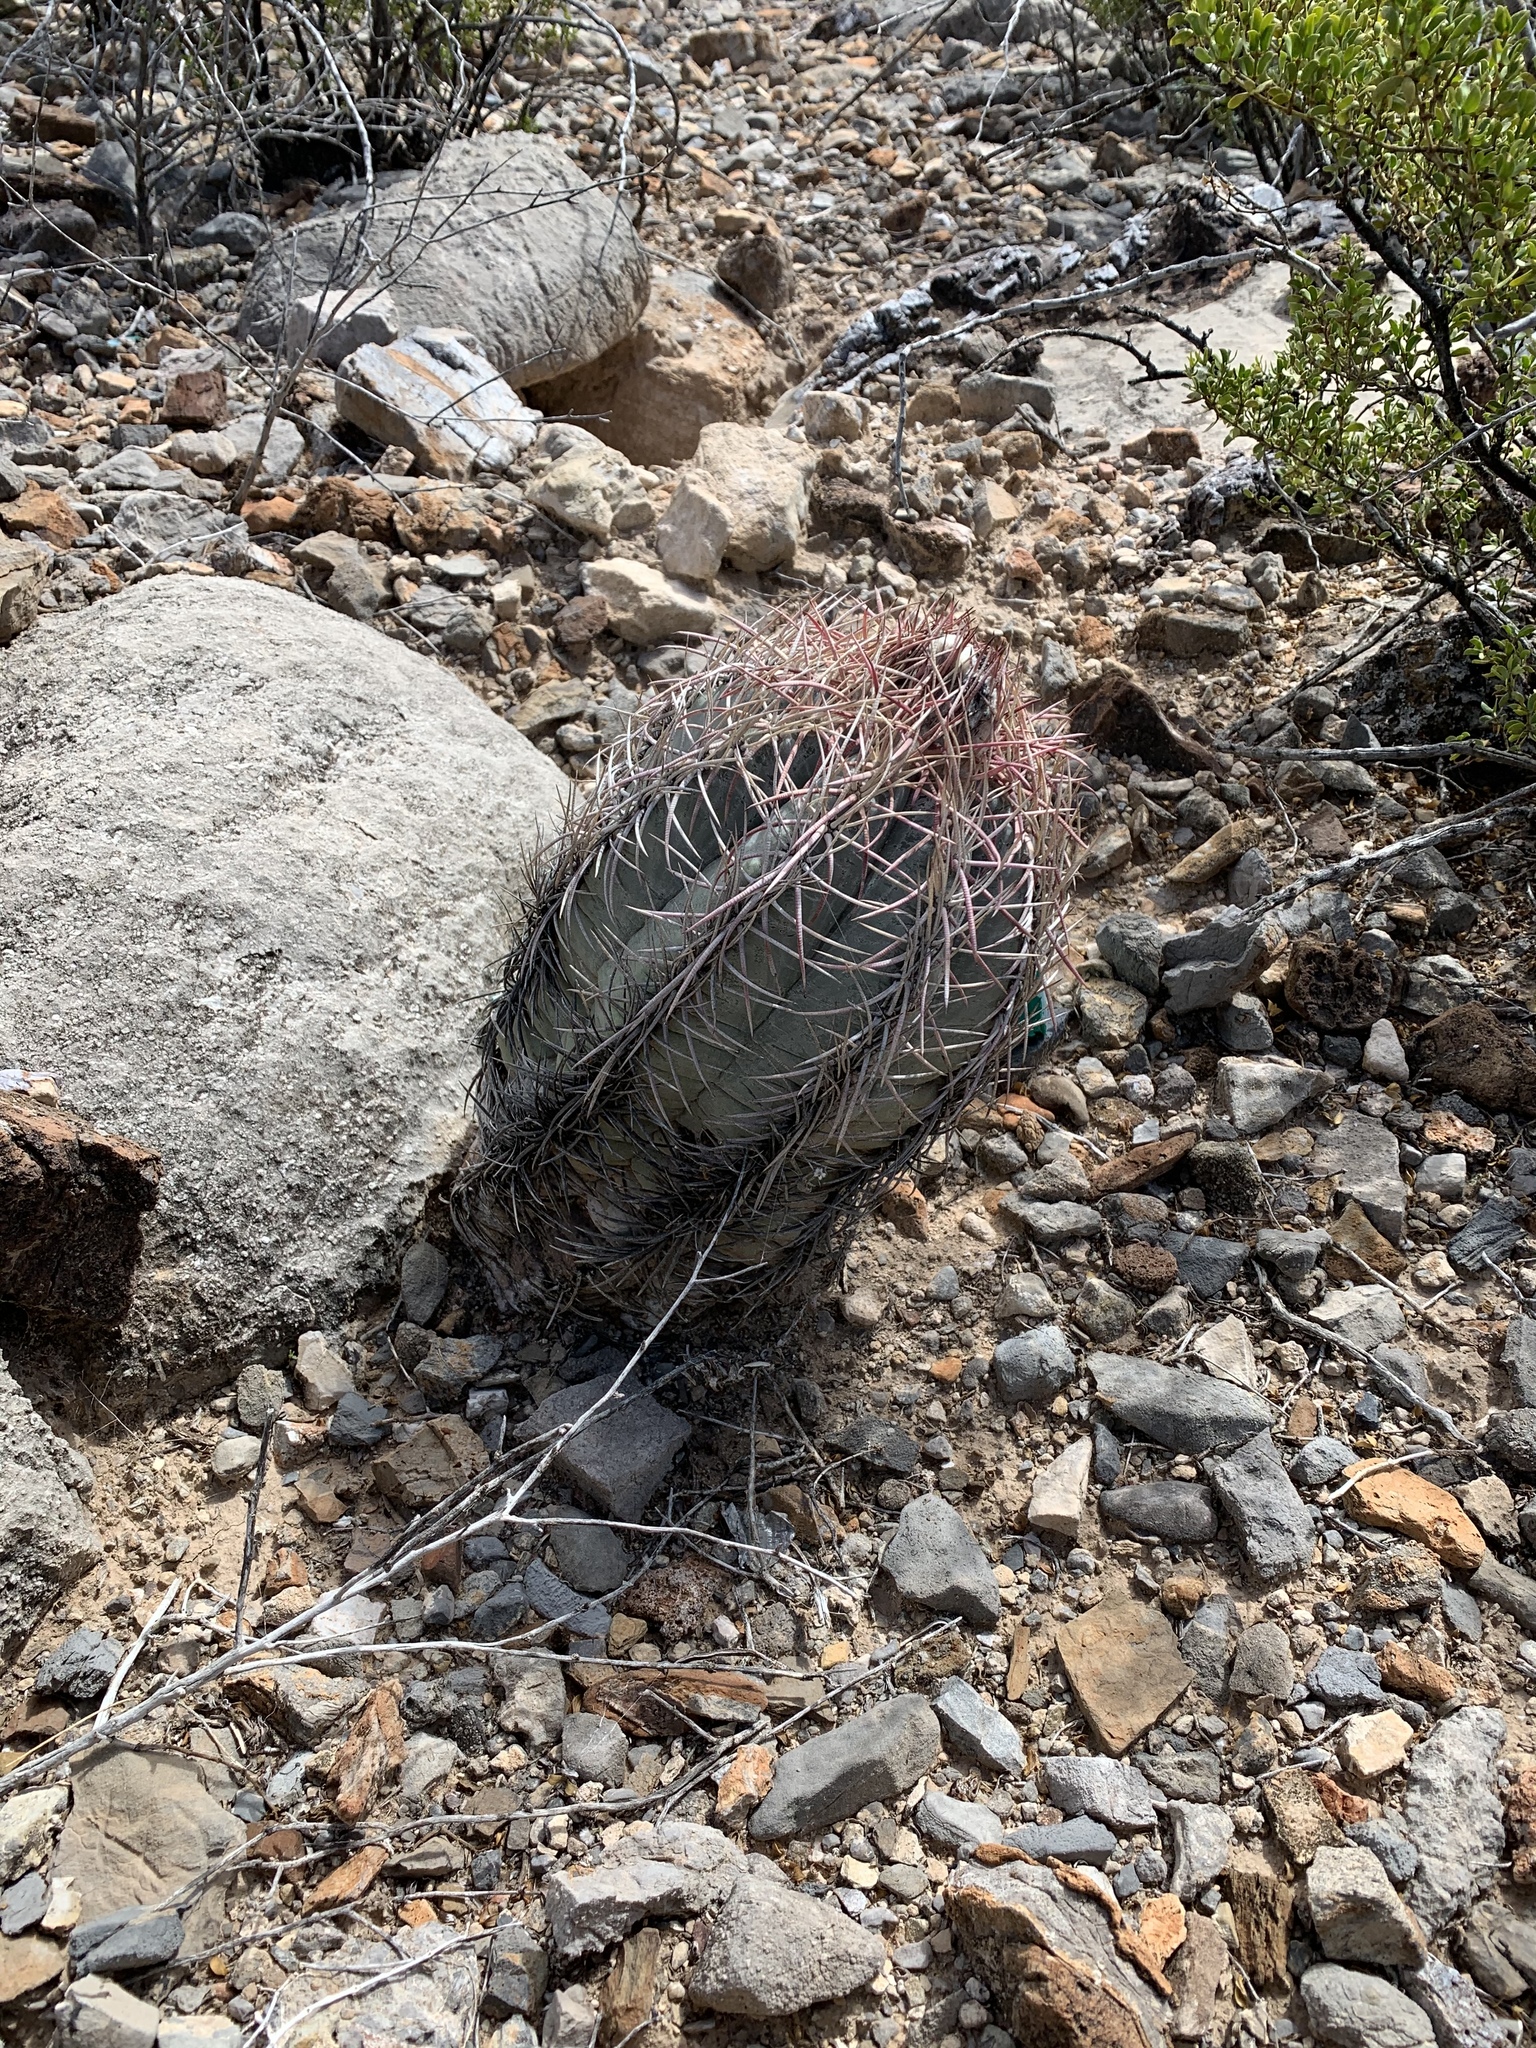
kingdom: Plantae
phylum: Tracheophyta
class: Magnoliopsida
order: Caryophyllales
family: Cactaceae
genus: Echinocactus
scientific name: Echinocactus horizonthalonius
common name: Devilshead
